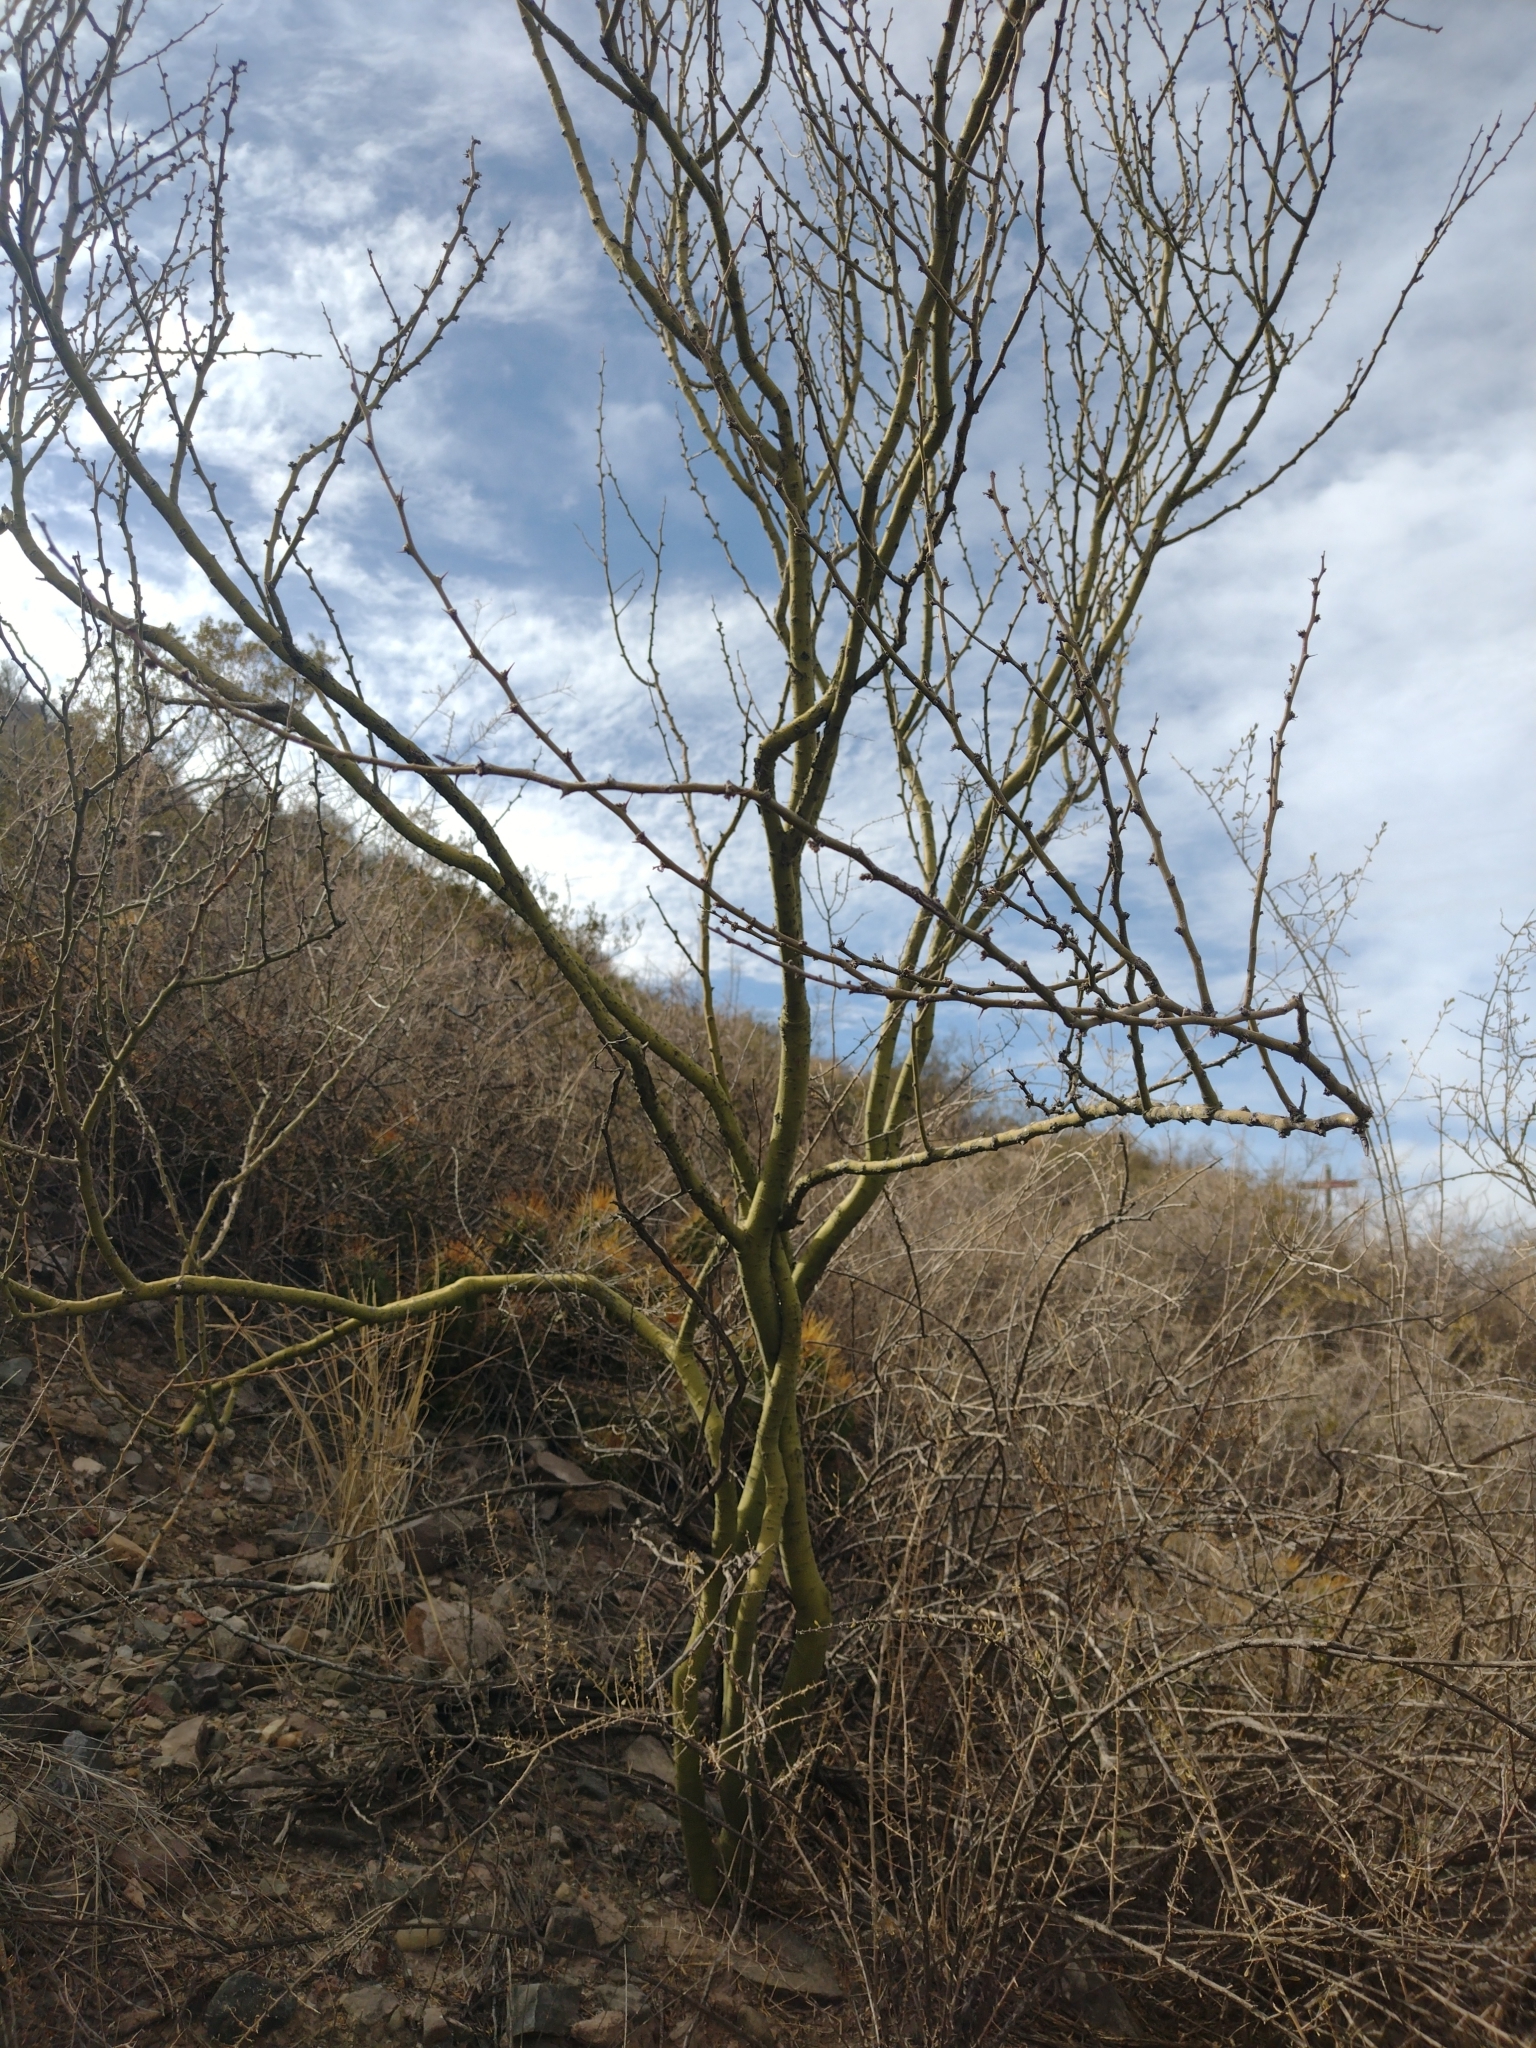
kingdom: Plantae
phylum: Tracheophyta
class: Magnoliopsida
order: Fabales
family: Fabaceae
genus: Parkinsonia
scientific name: Parkinsonia praecox
